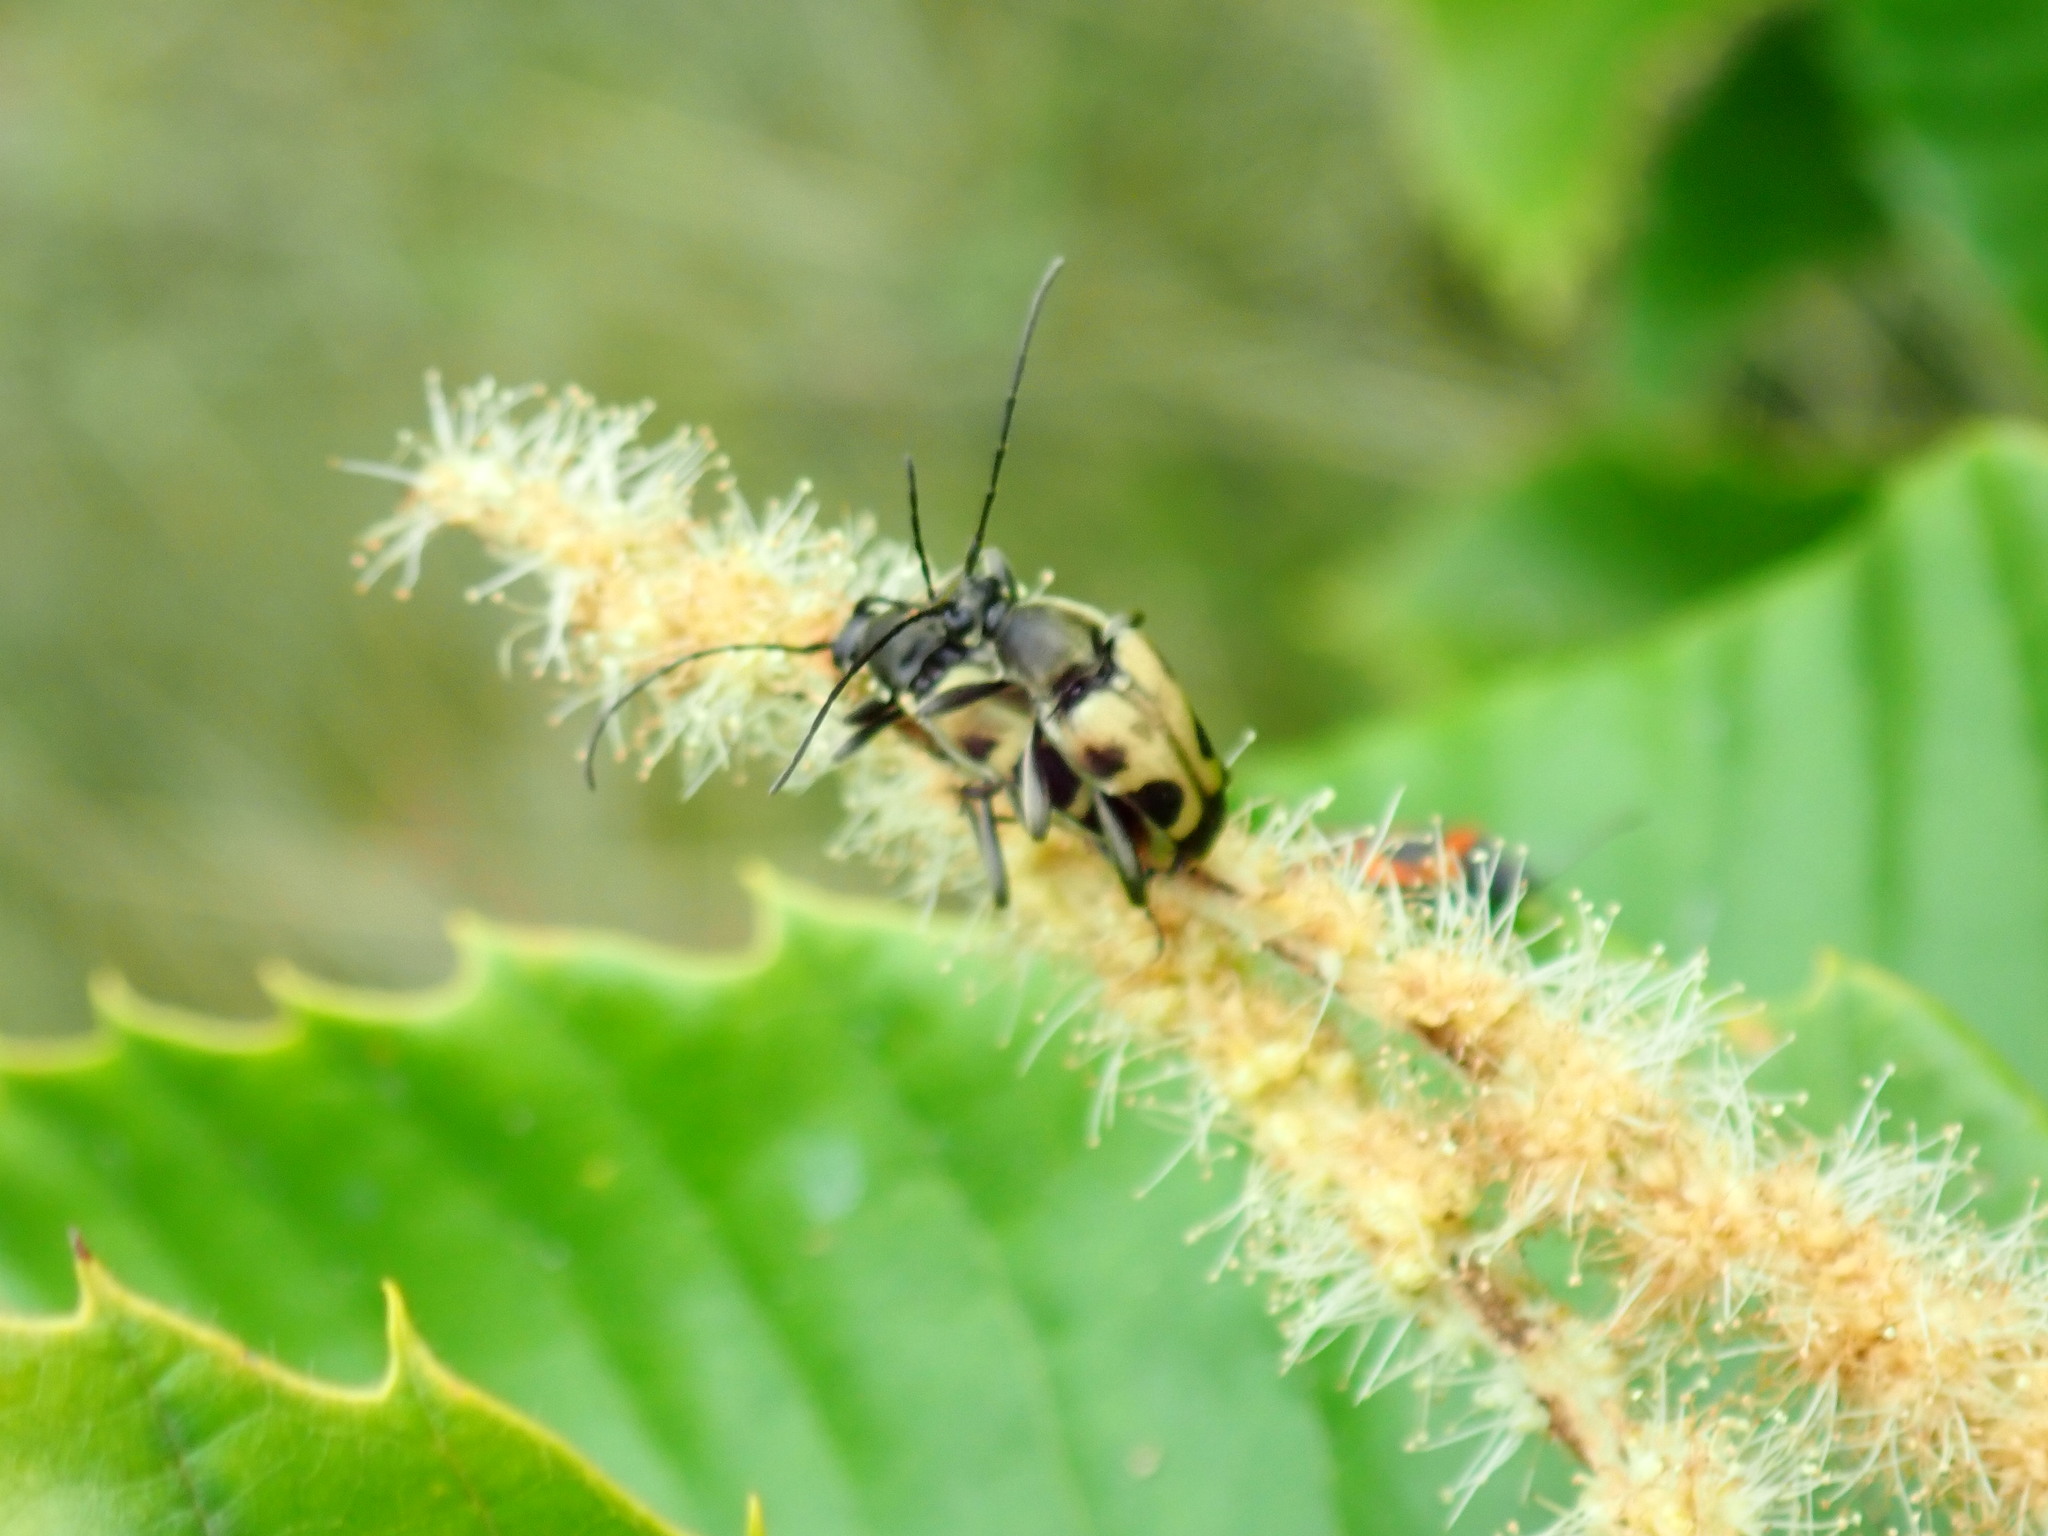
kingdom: Animalia
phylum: Arthropoda
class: Insecta
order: Coleoptera
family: Cerambycidae
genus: Judolia
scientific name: Judolia cordifera
